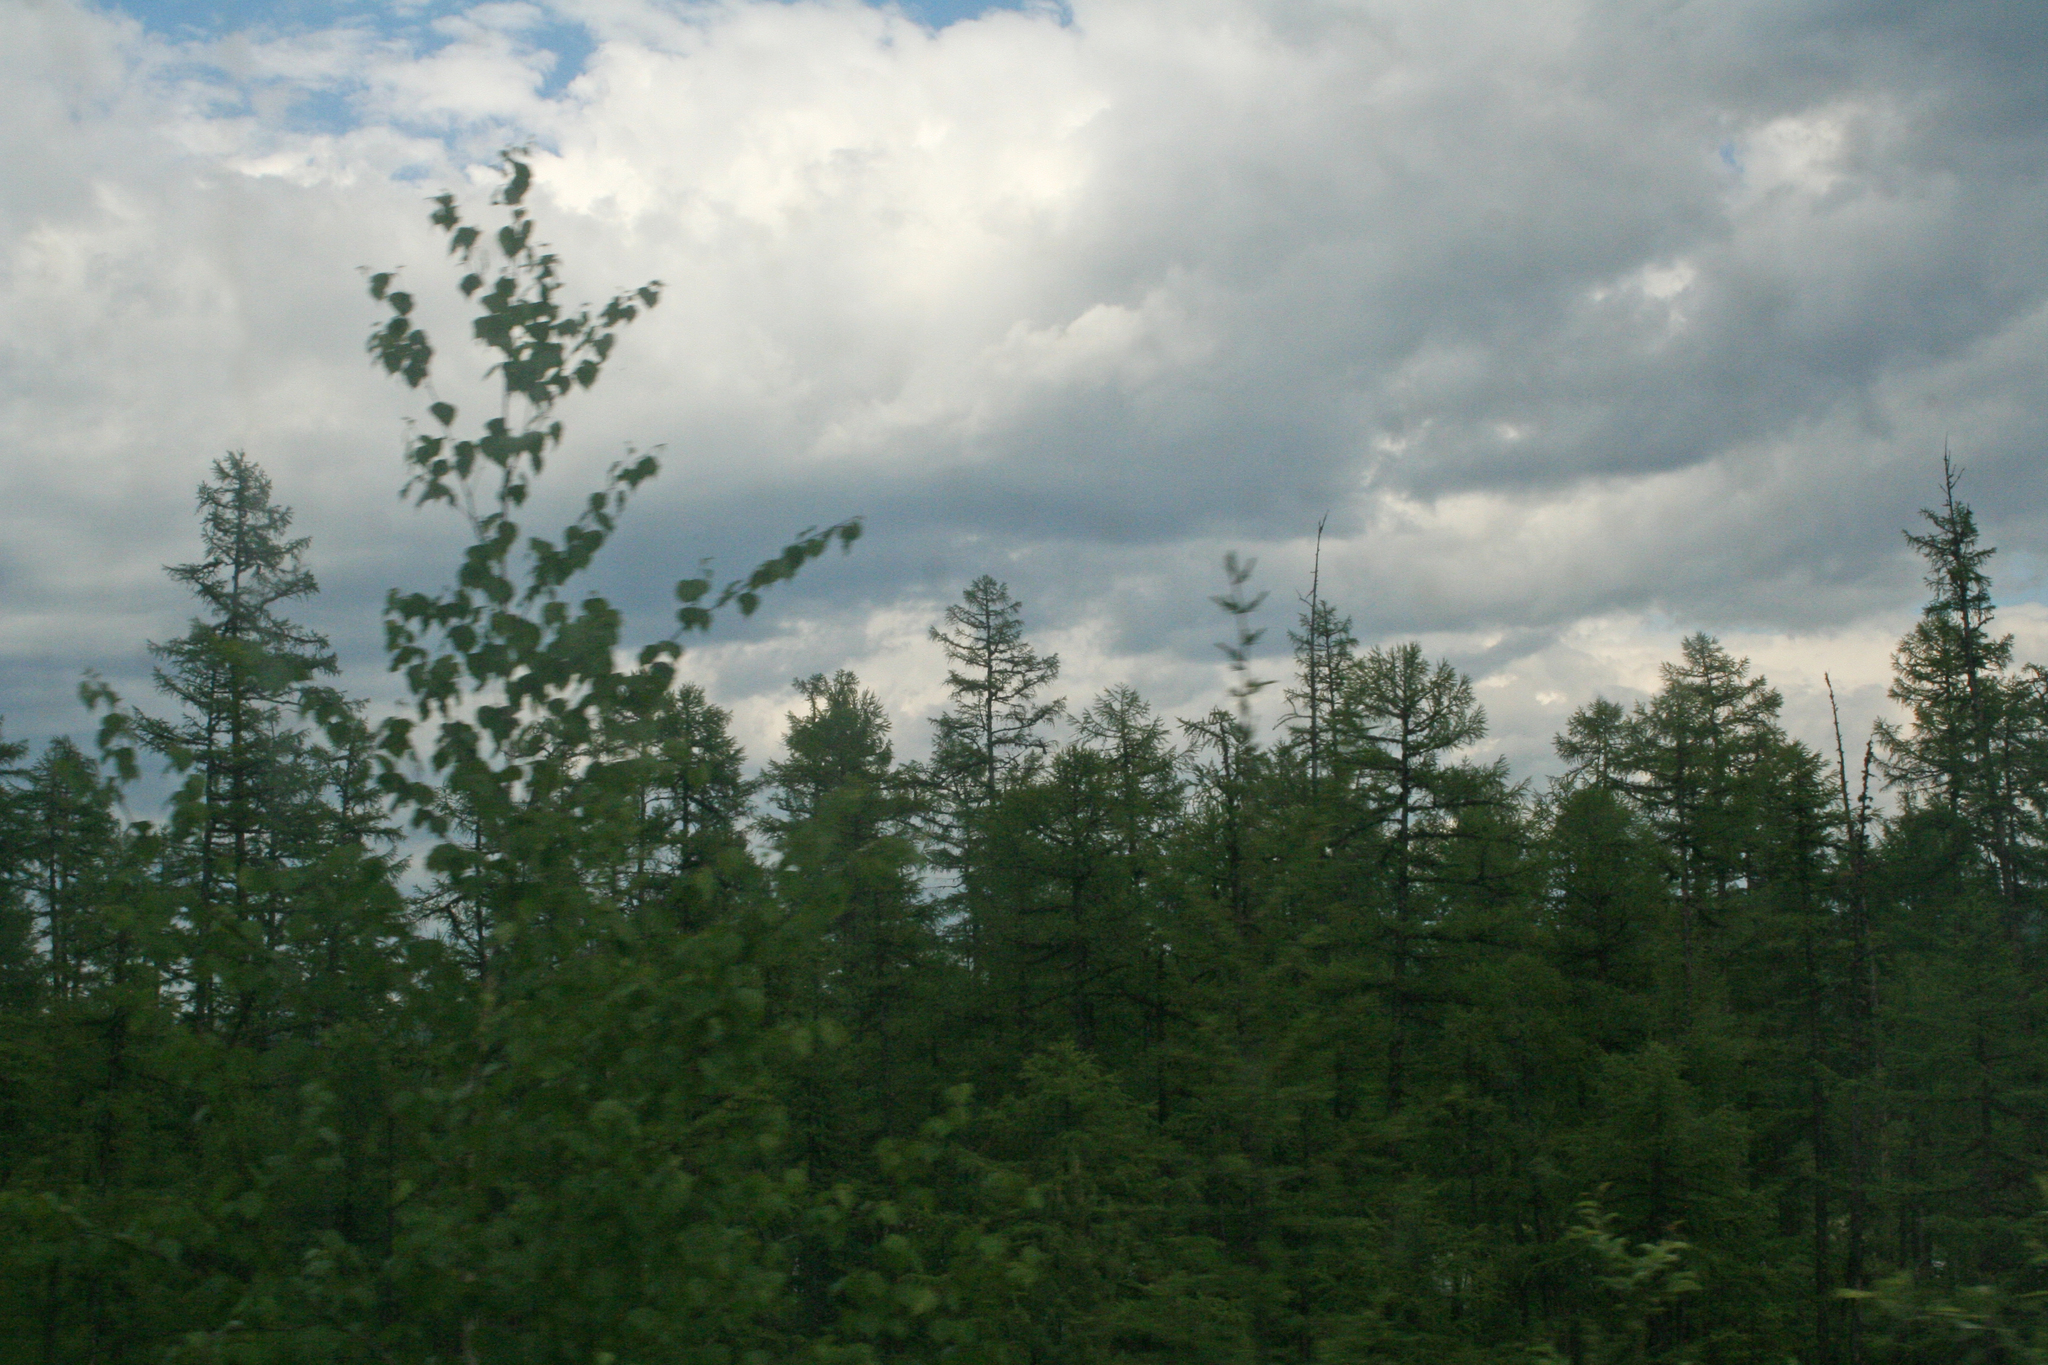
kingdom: Plantae
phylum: Tracheophyta
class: Pinopsida
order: Pinales
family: Pinaceae
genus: Larix
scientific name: Larix gmelinii
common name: Dahurian larch
